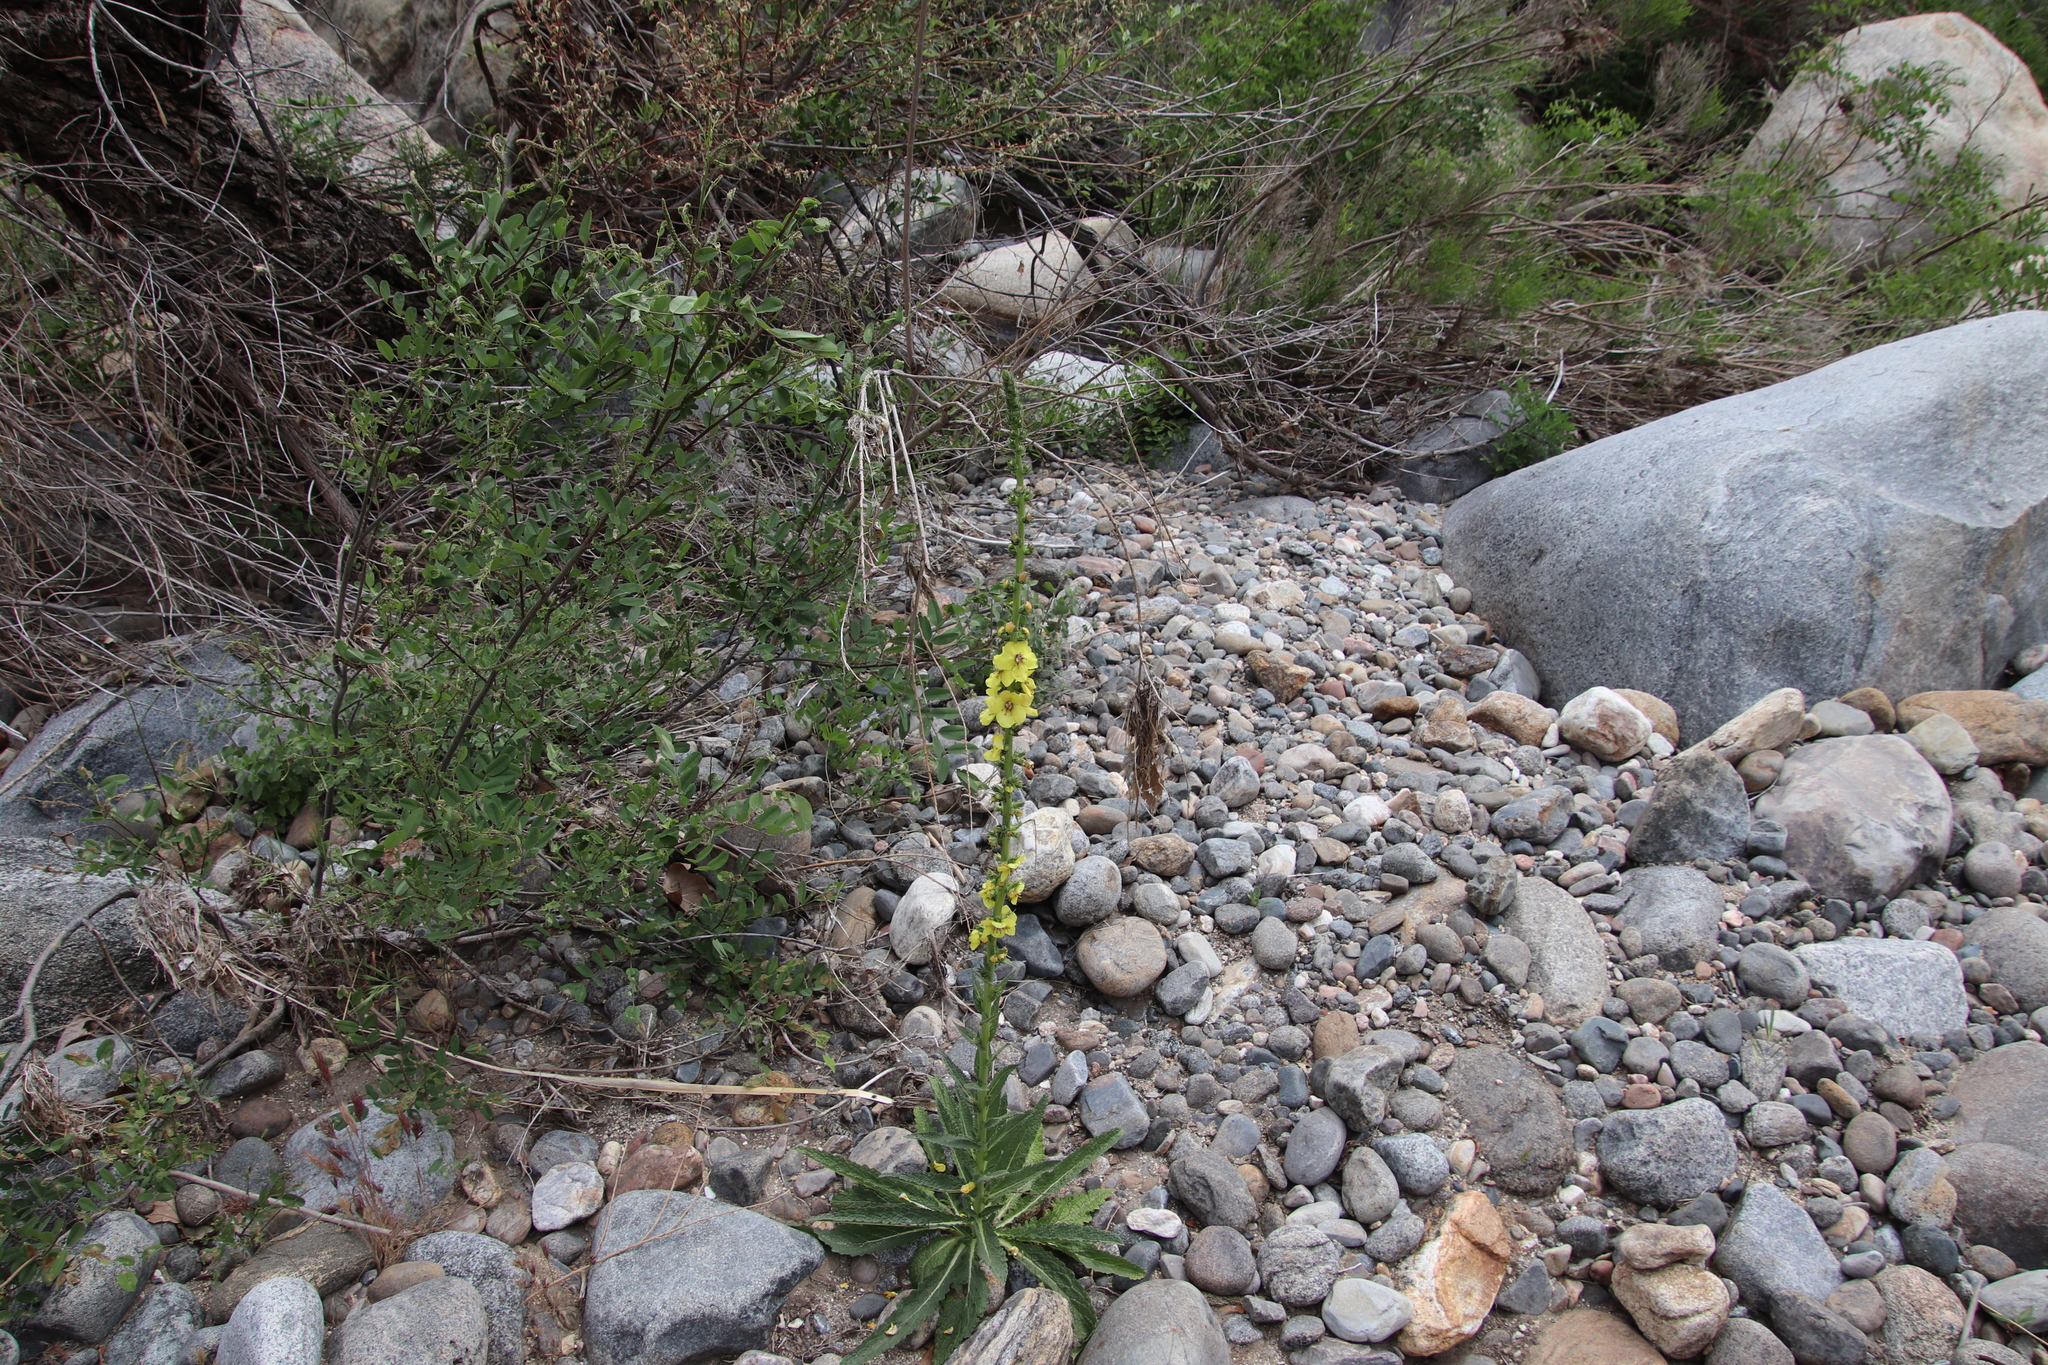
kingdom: Plantae
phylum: Tracheophyta
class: Magnoliopsida
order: Lamiales
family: Scrophulariaceae
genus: Verbascum
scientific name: Verbascum virgatum
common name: Twiggy mullein
